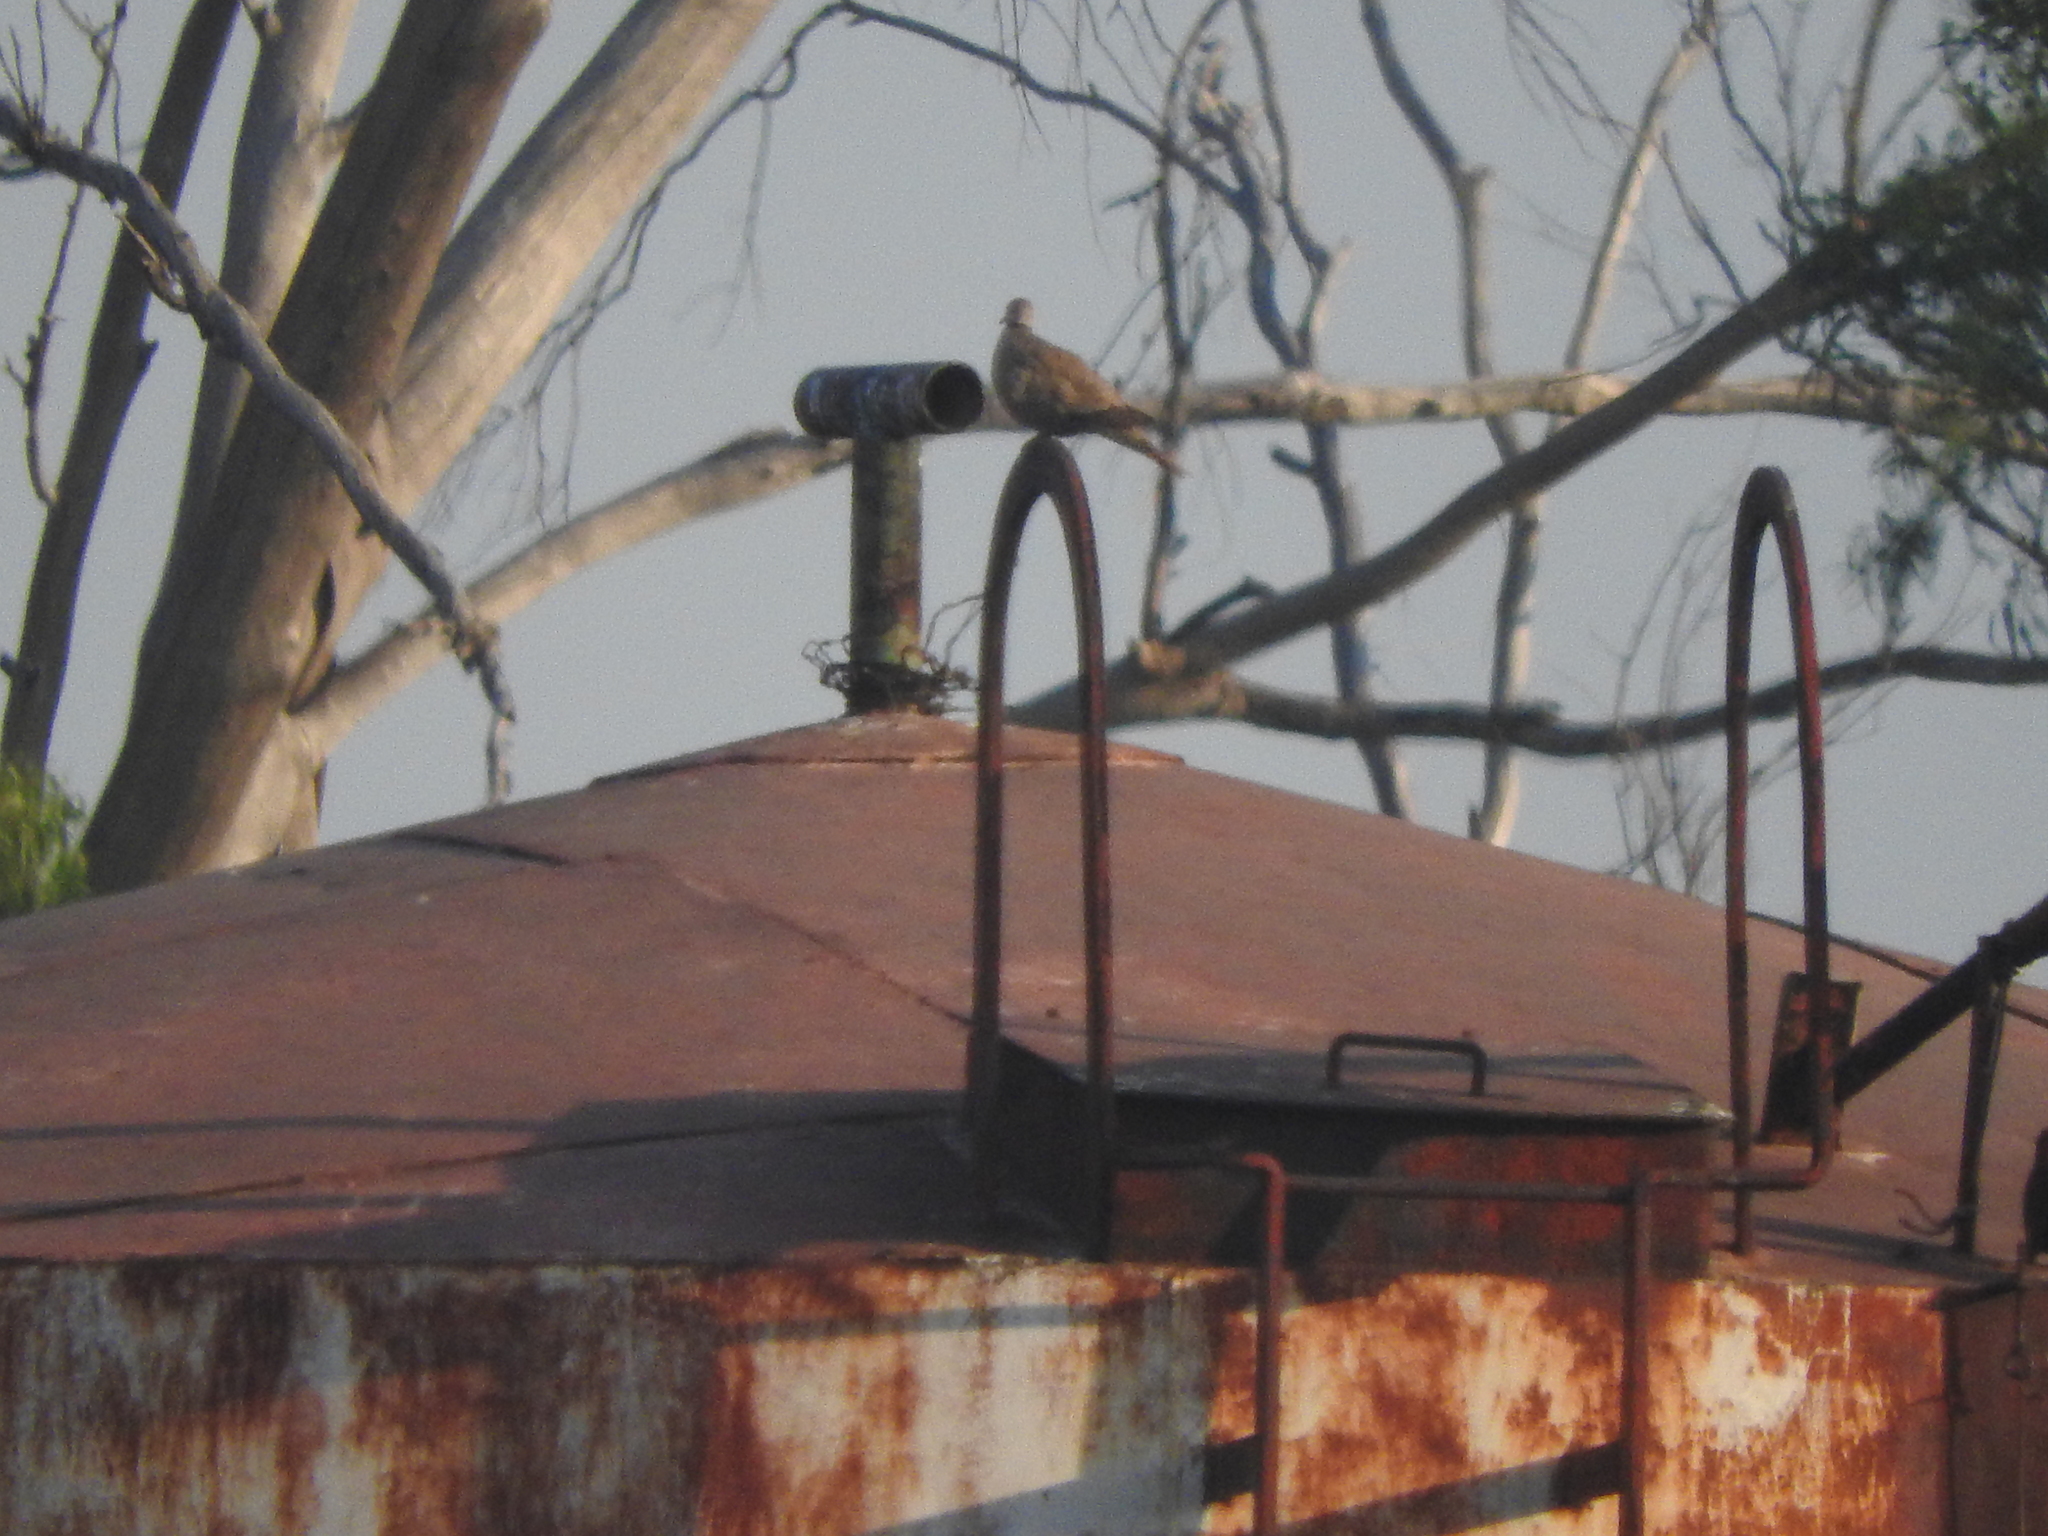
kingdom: Animalia
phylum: Chordata
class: Aves
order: Columbiformes
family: Columbidae
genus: Streptopelia
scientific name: Streptopelia decaocto
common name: Eurasian collared dove
